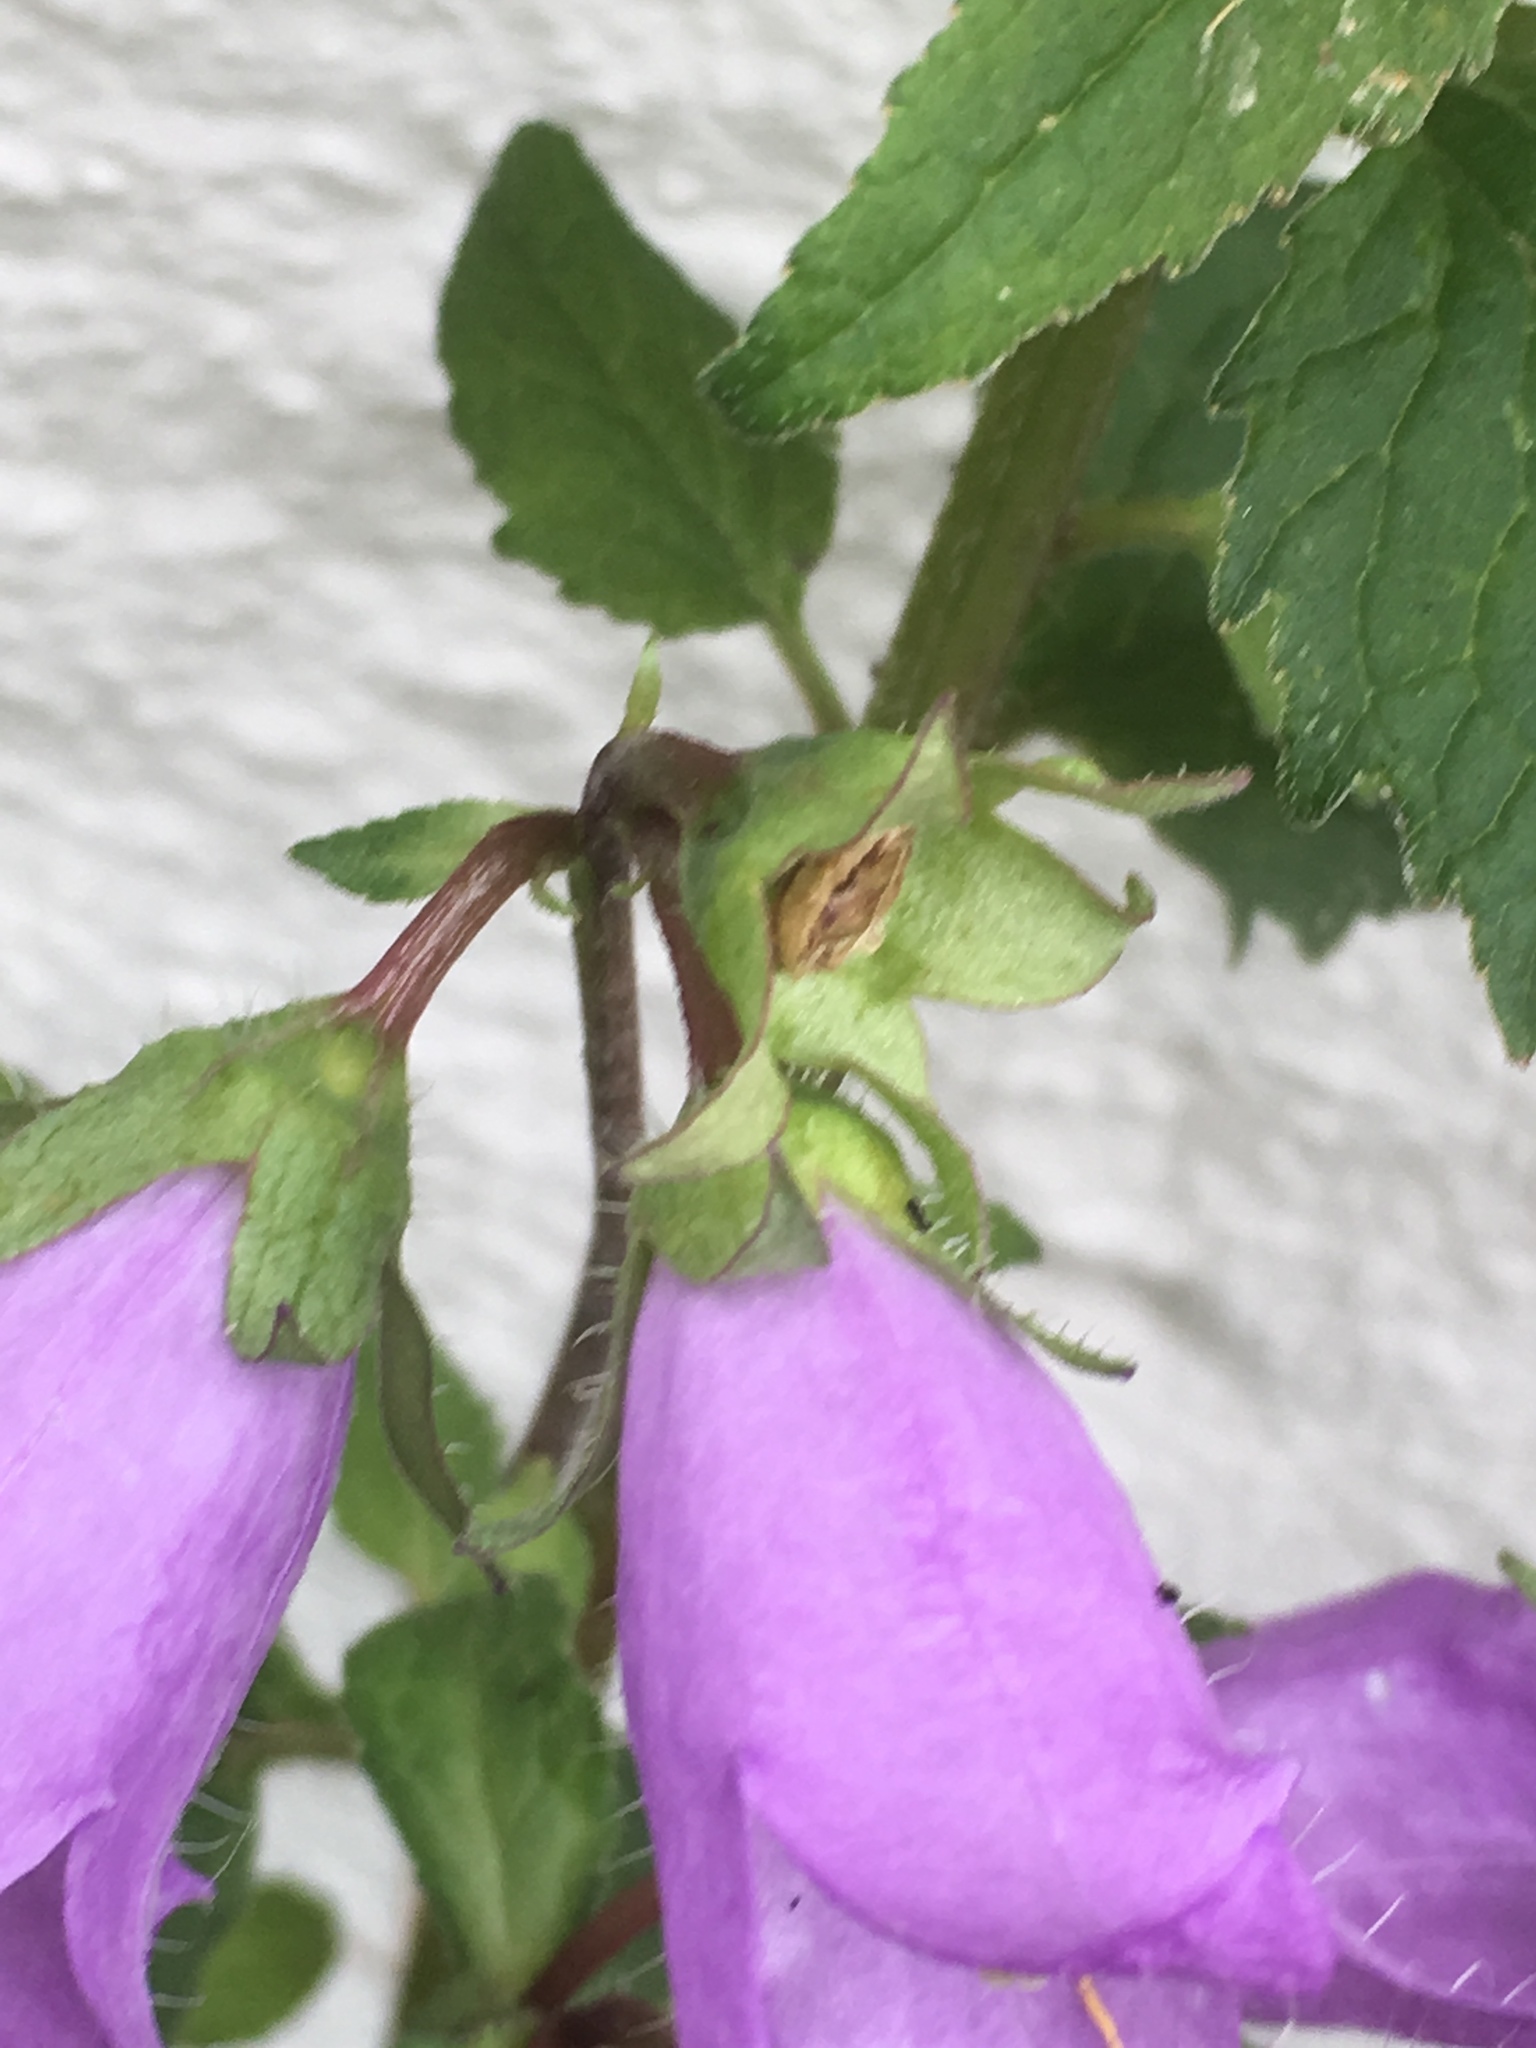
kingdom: Plantae
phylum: Tracheophyta
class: Magnoliopsida
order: Asterales
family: Campanulaceae
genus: Campanula
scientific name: Campanula trachelium
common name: Nettle-leaved bellflower
